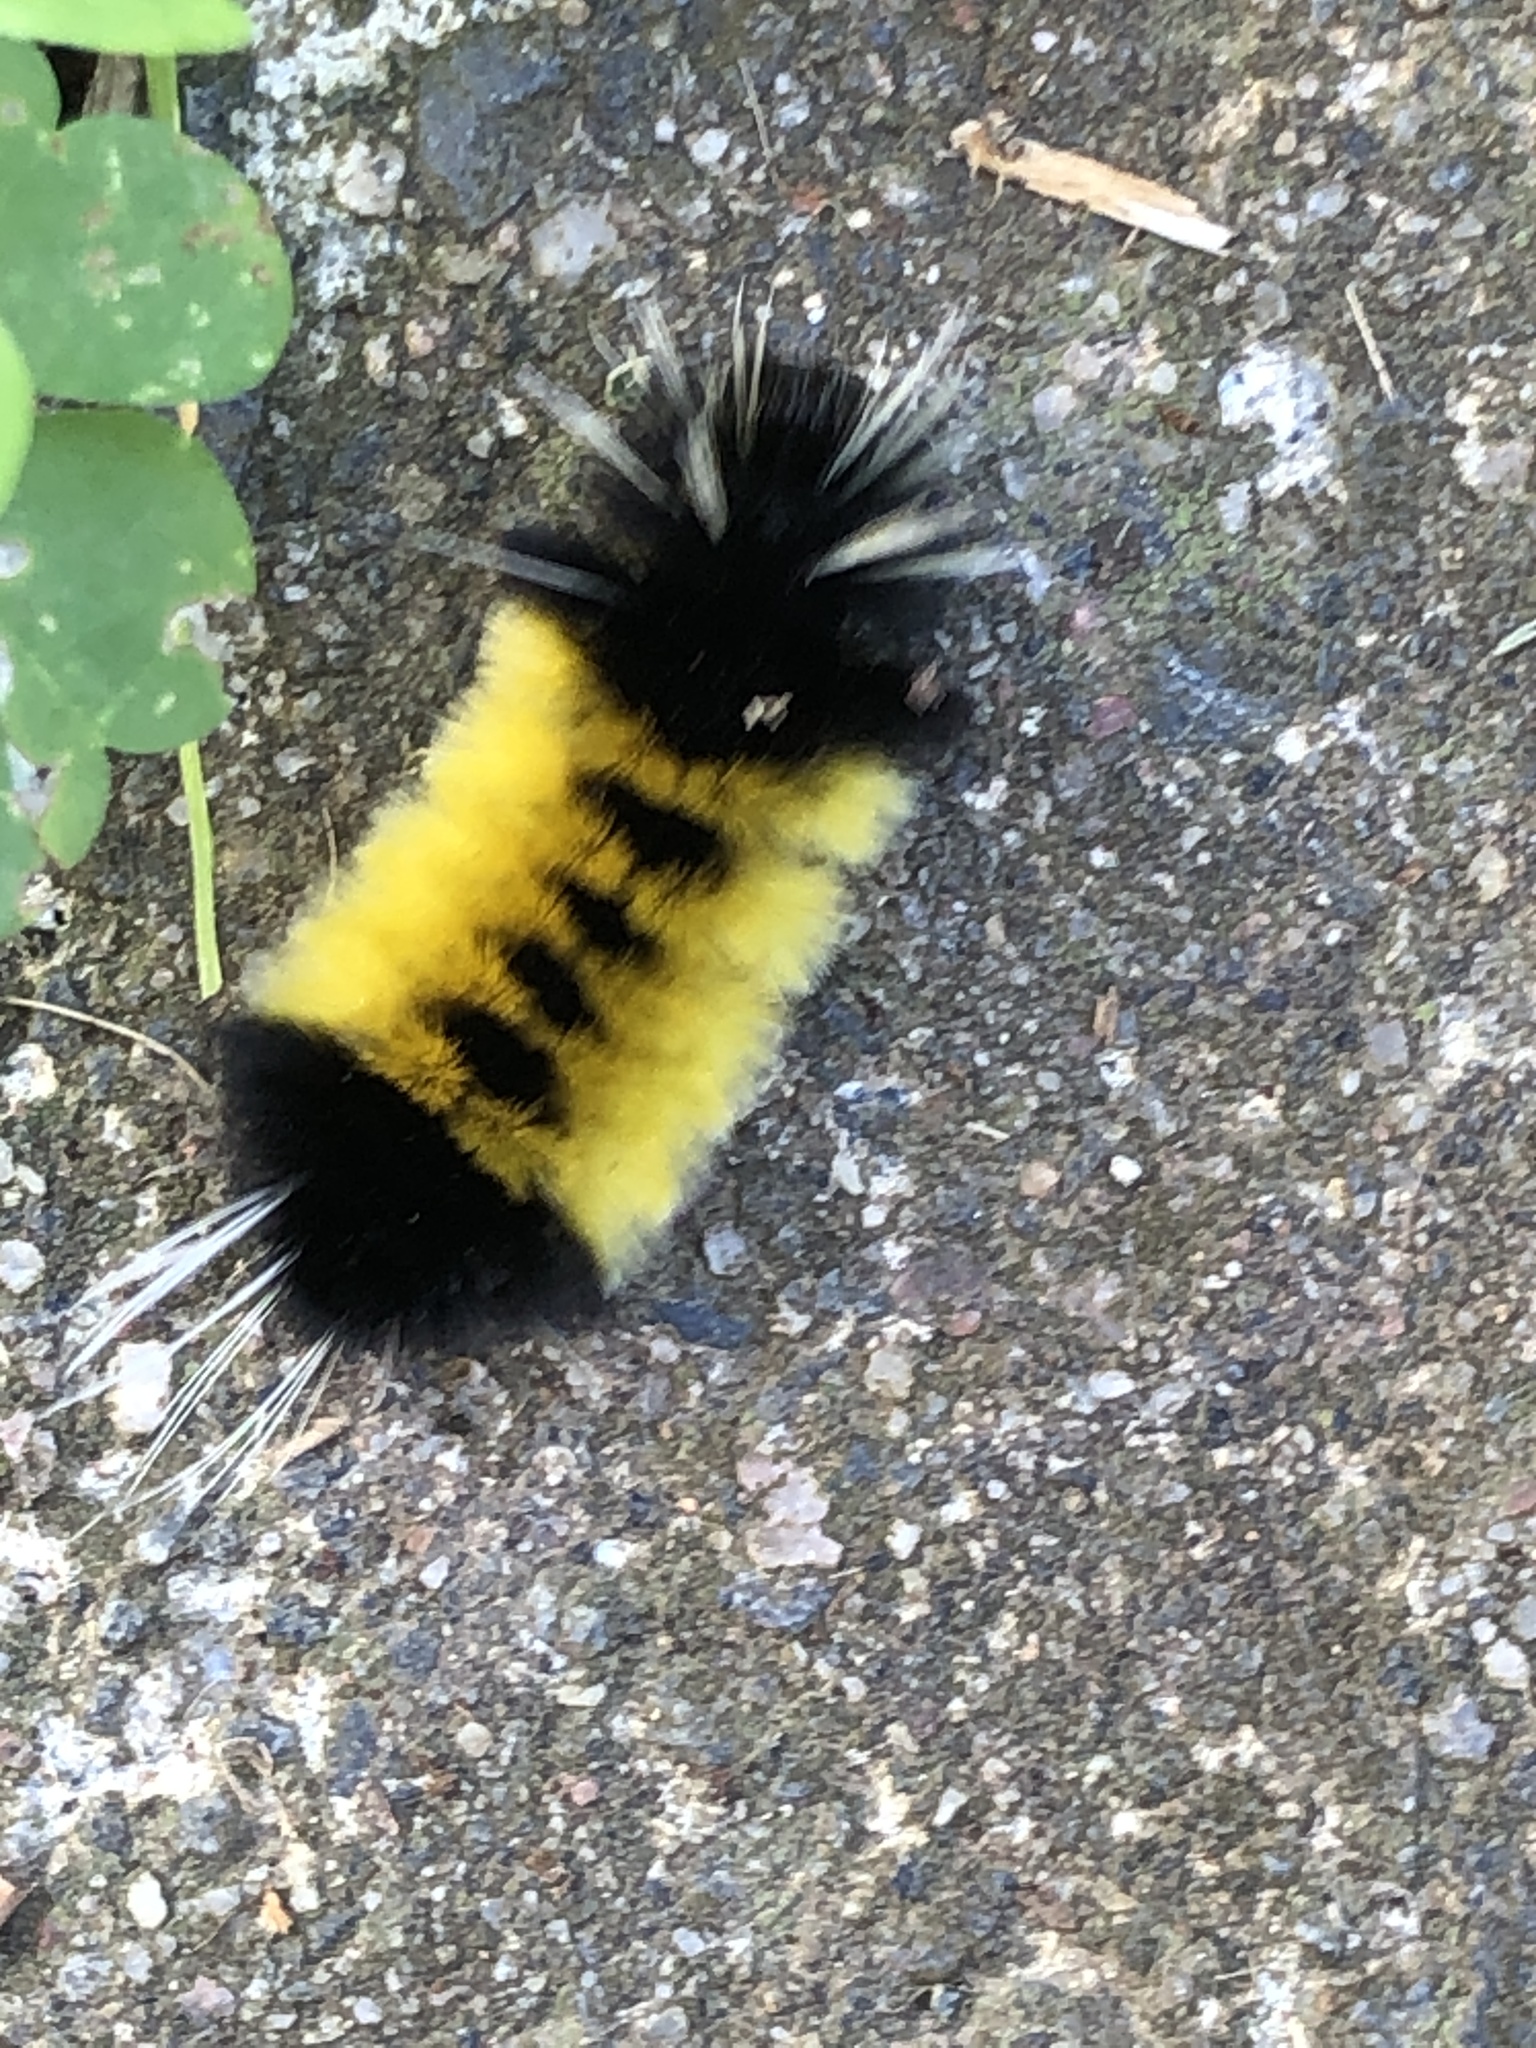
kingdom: Animalia
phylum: Arthropoda
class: Insecta
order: Lepidoptera
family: Erebidae
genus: Lophocampa
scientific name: Lophocampa maculata
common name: Spotted tussock moth
